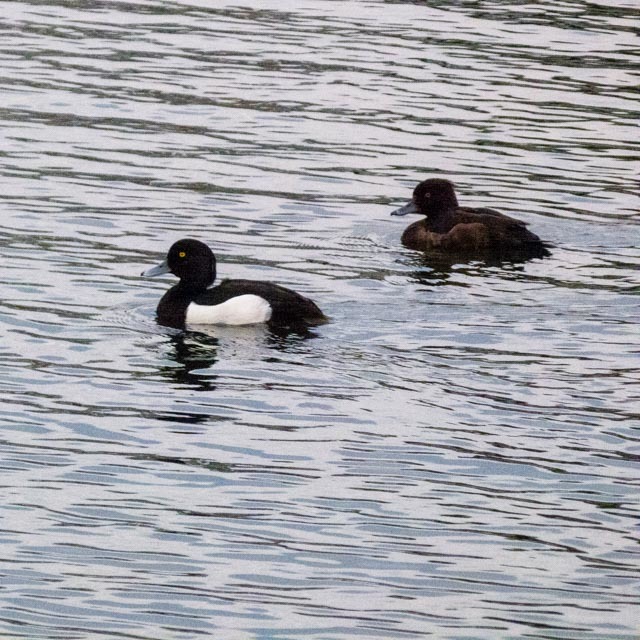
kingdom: Animalia
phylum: Chordata
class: Aves
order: Anseriformes
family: Anatidae
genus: Aythya
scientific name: Aythya fuligula
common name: Tufted duck
